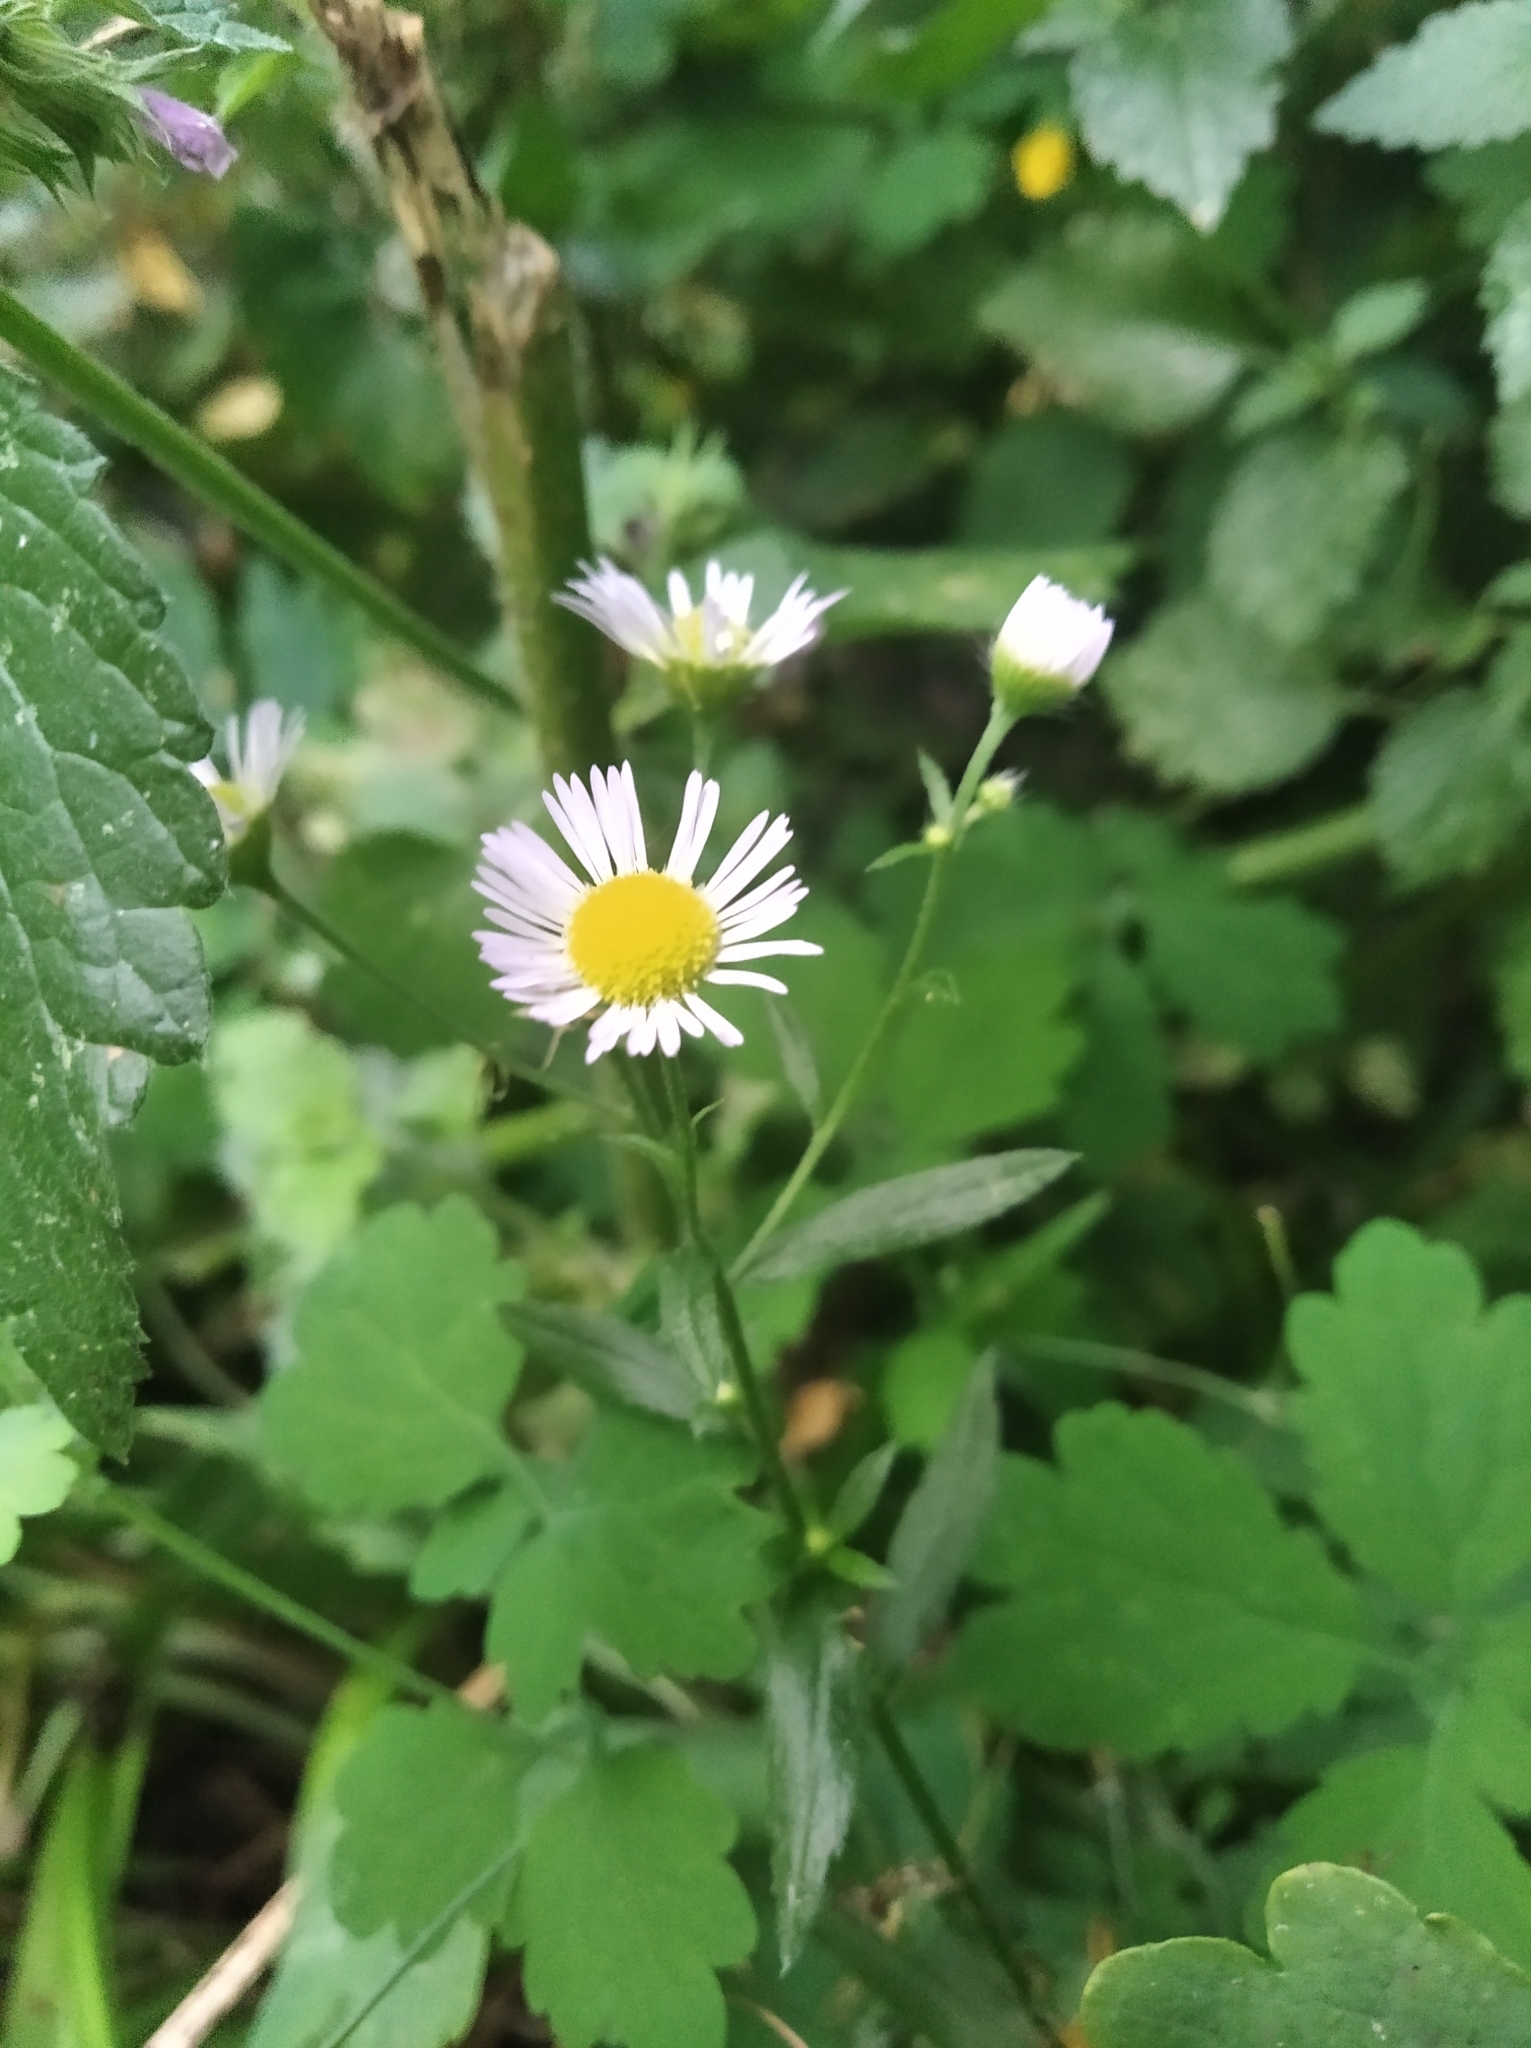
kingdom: Plantae
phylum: Tracheophyta
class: Magnoliopsida
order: Asterales
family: Asteraceae
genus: Erigeron
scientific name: Erigeron annuus
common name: Tall fleabane
